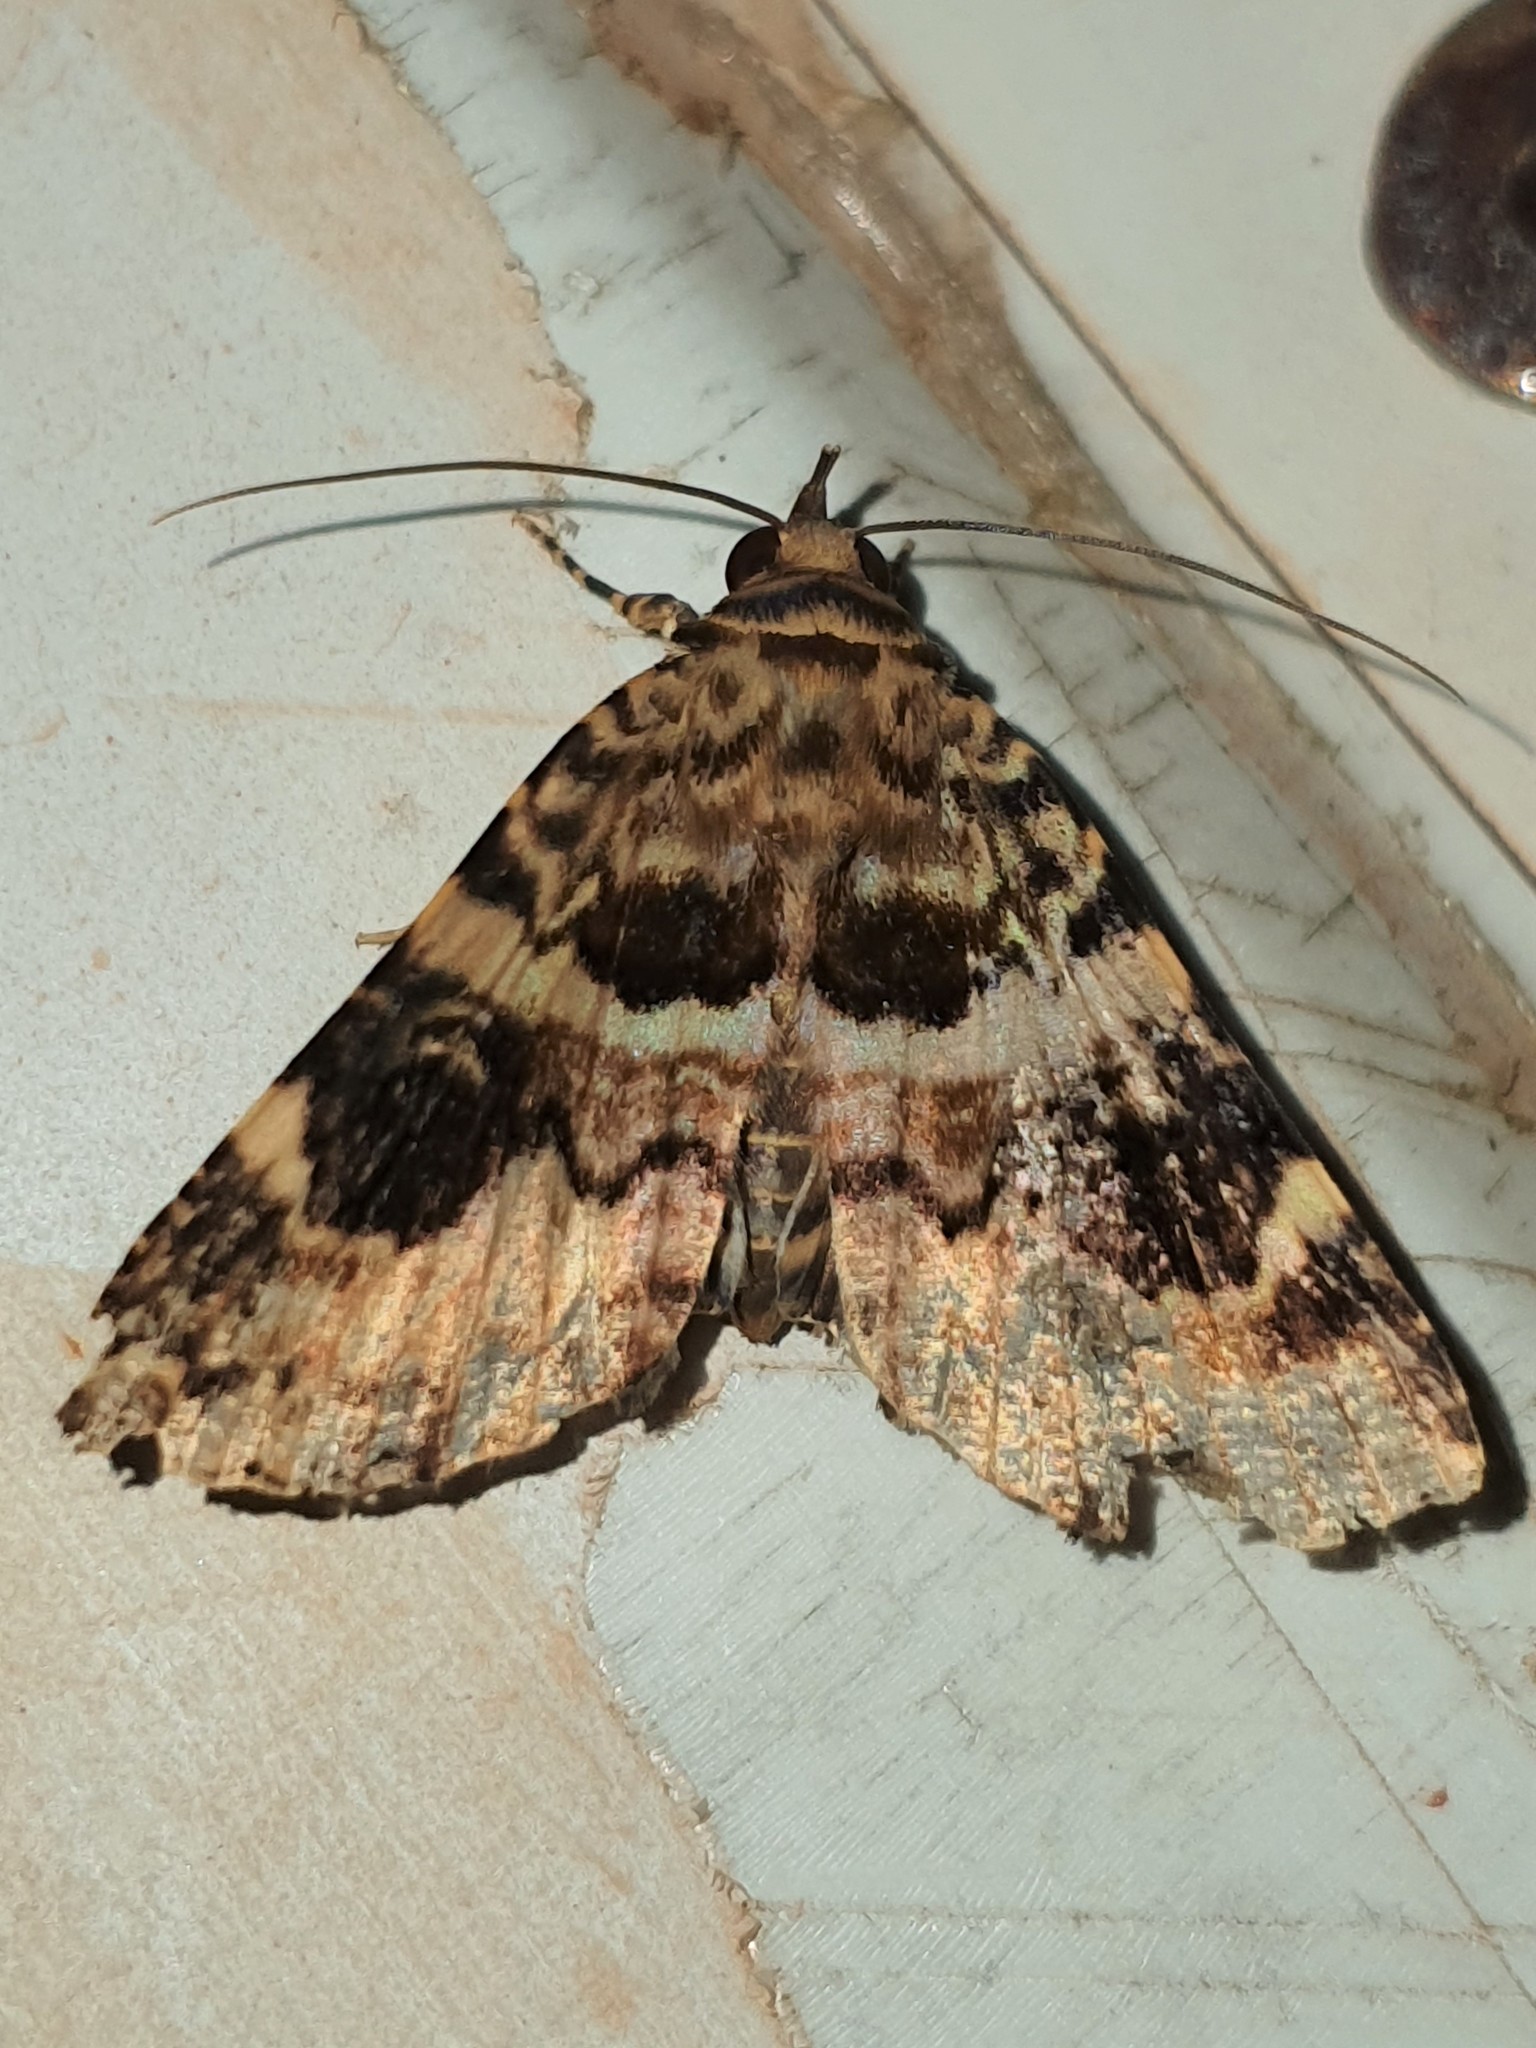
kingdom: Animalia
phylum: Arthropoda
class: Insecta
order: Lepidoptera
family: Erebidae
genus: Acolasis
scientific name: Acolasis tanais
